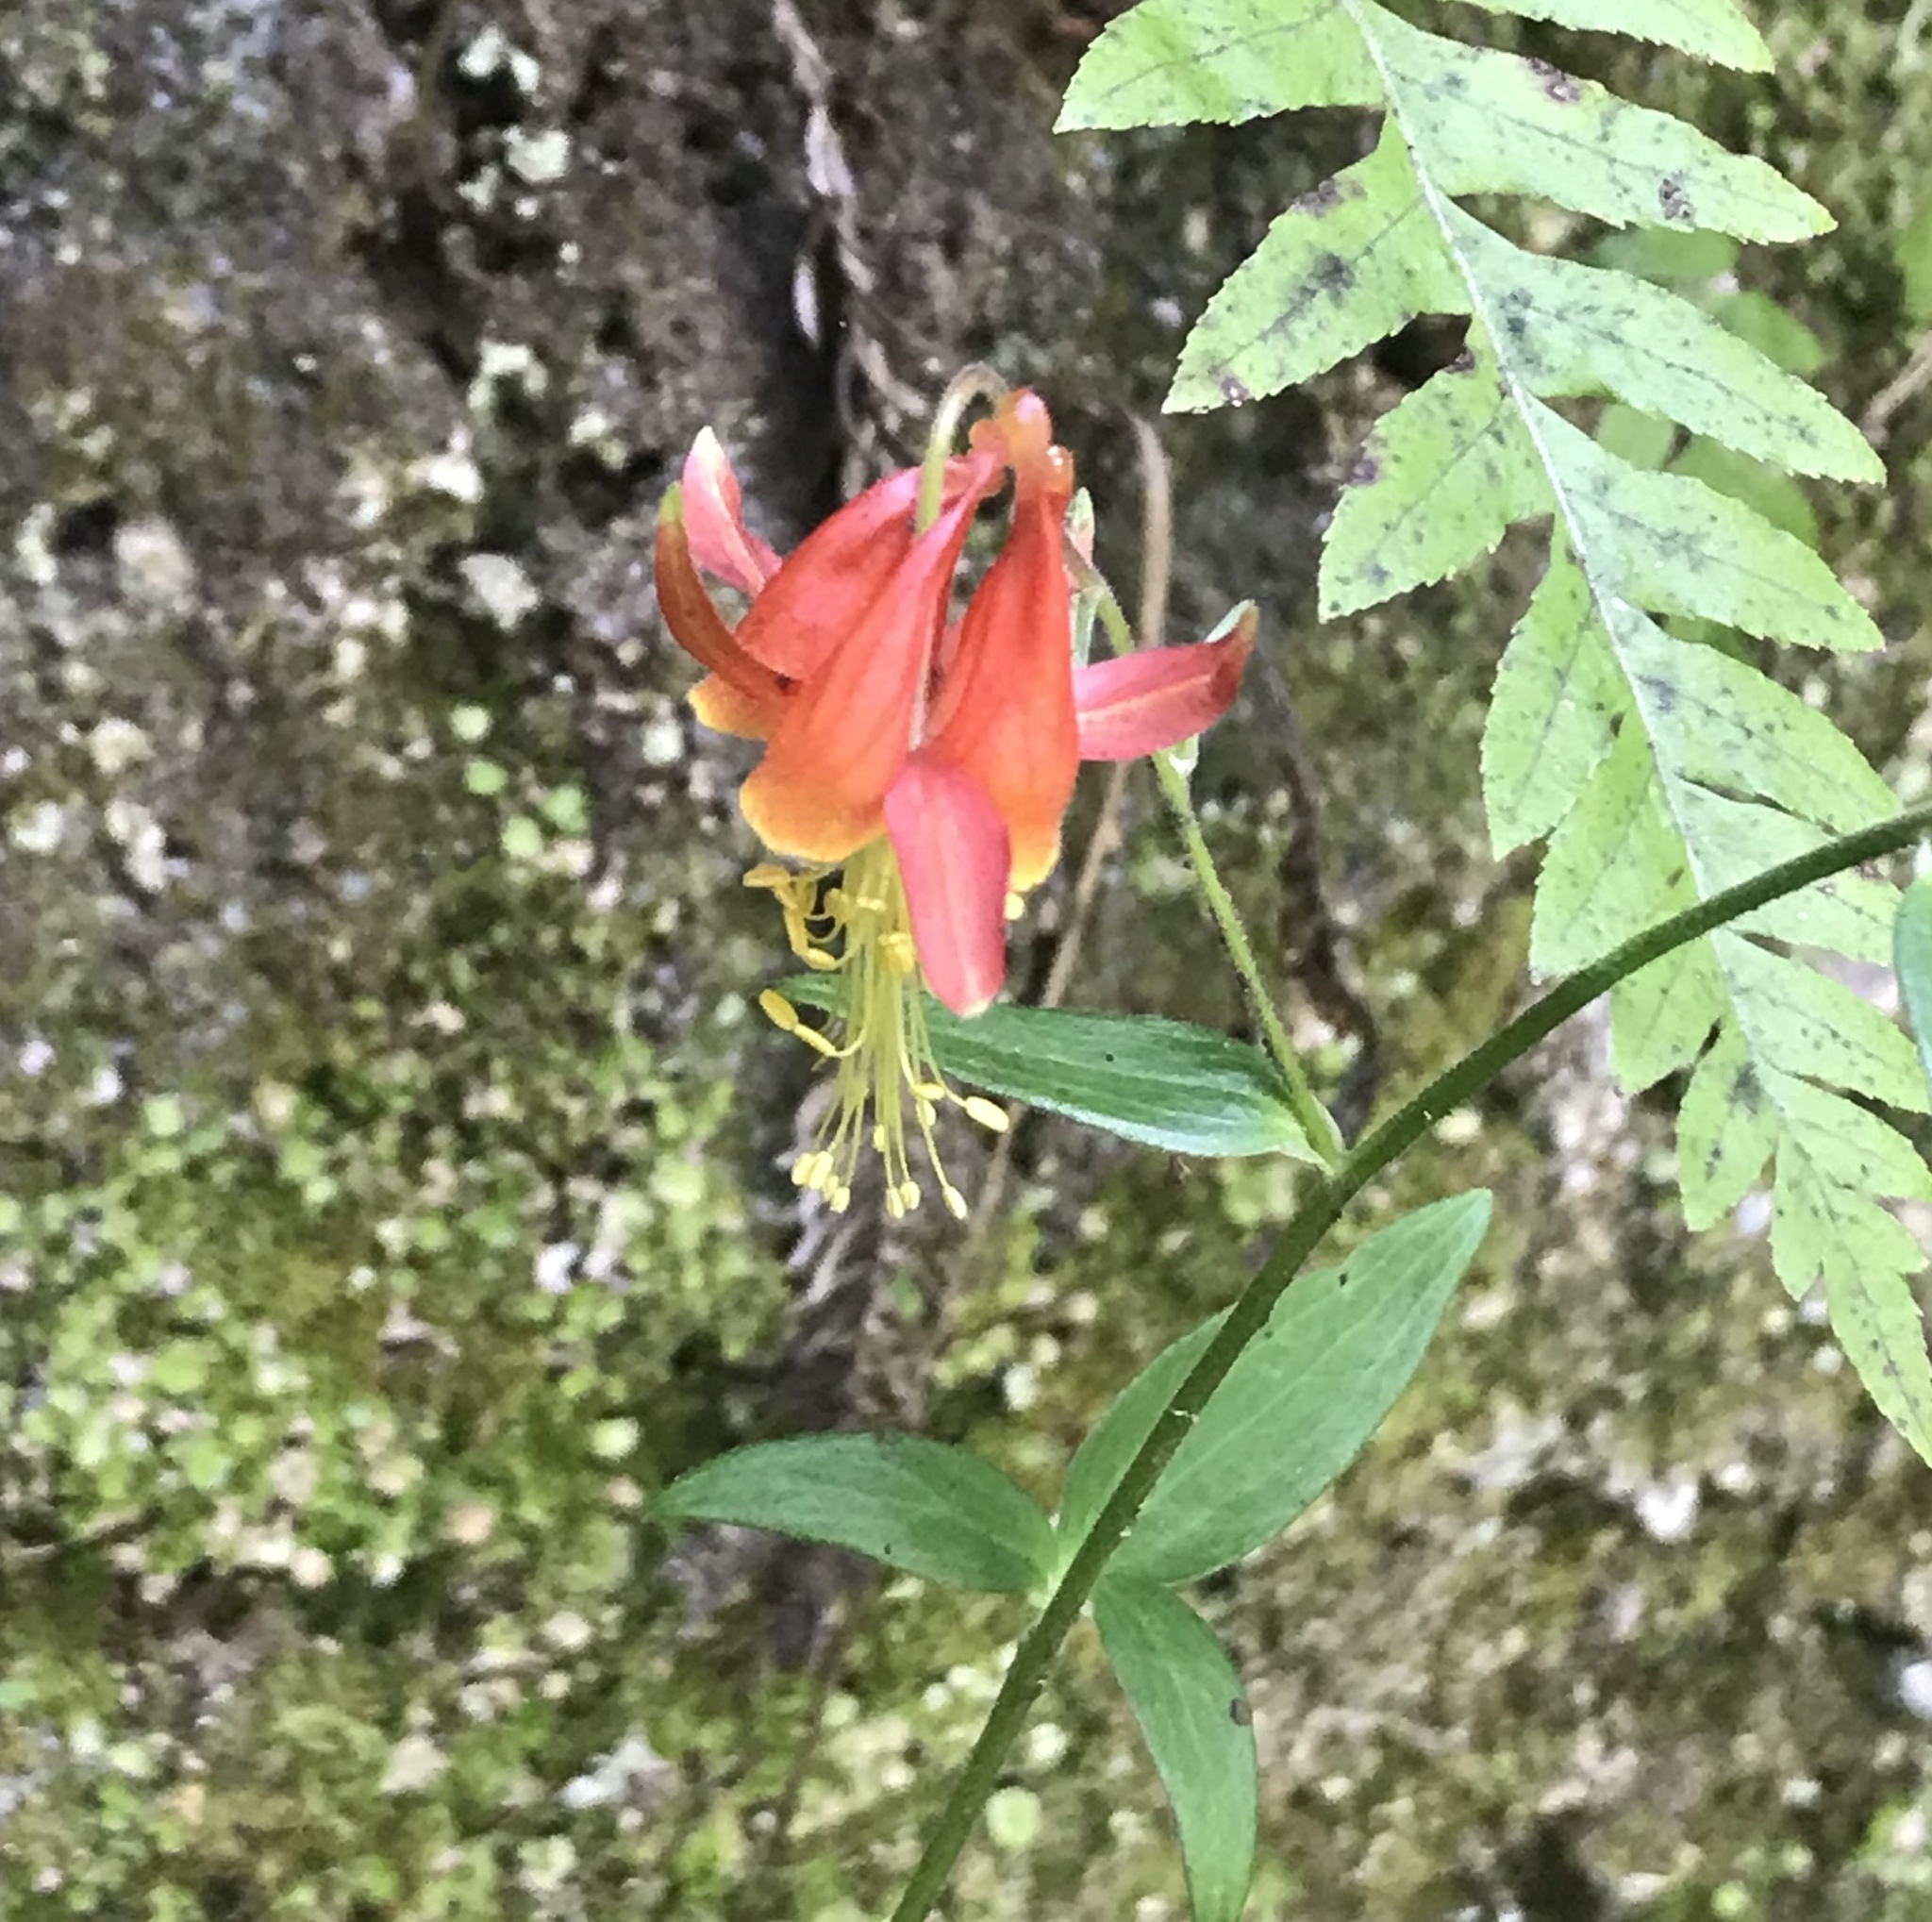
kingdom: Plantae
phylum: Tracheophyta
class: Magnoliopsida
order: Ranunculales
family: Ranunculaceae
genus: Aquilegia
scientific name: Aquilegia formosa
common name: Sitka columbine
